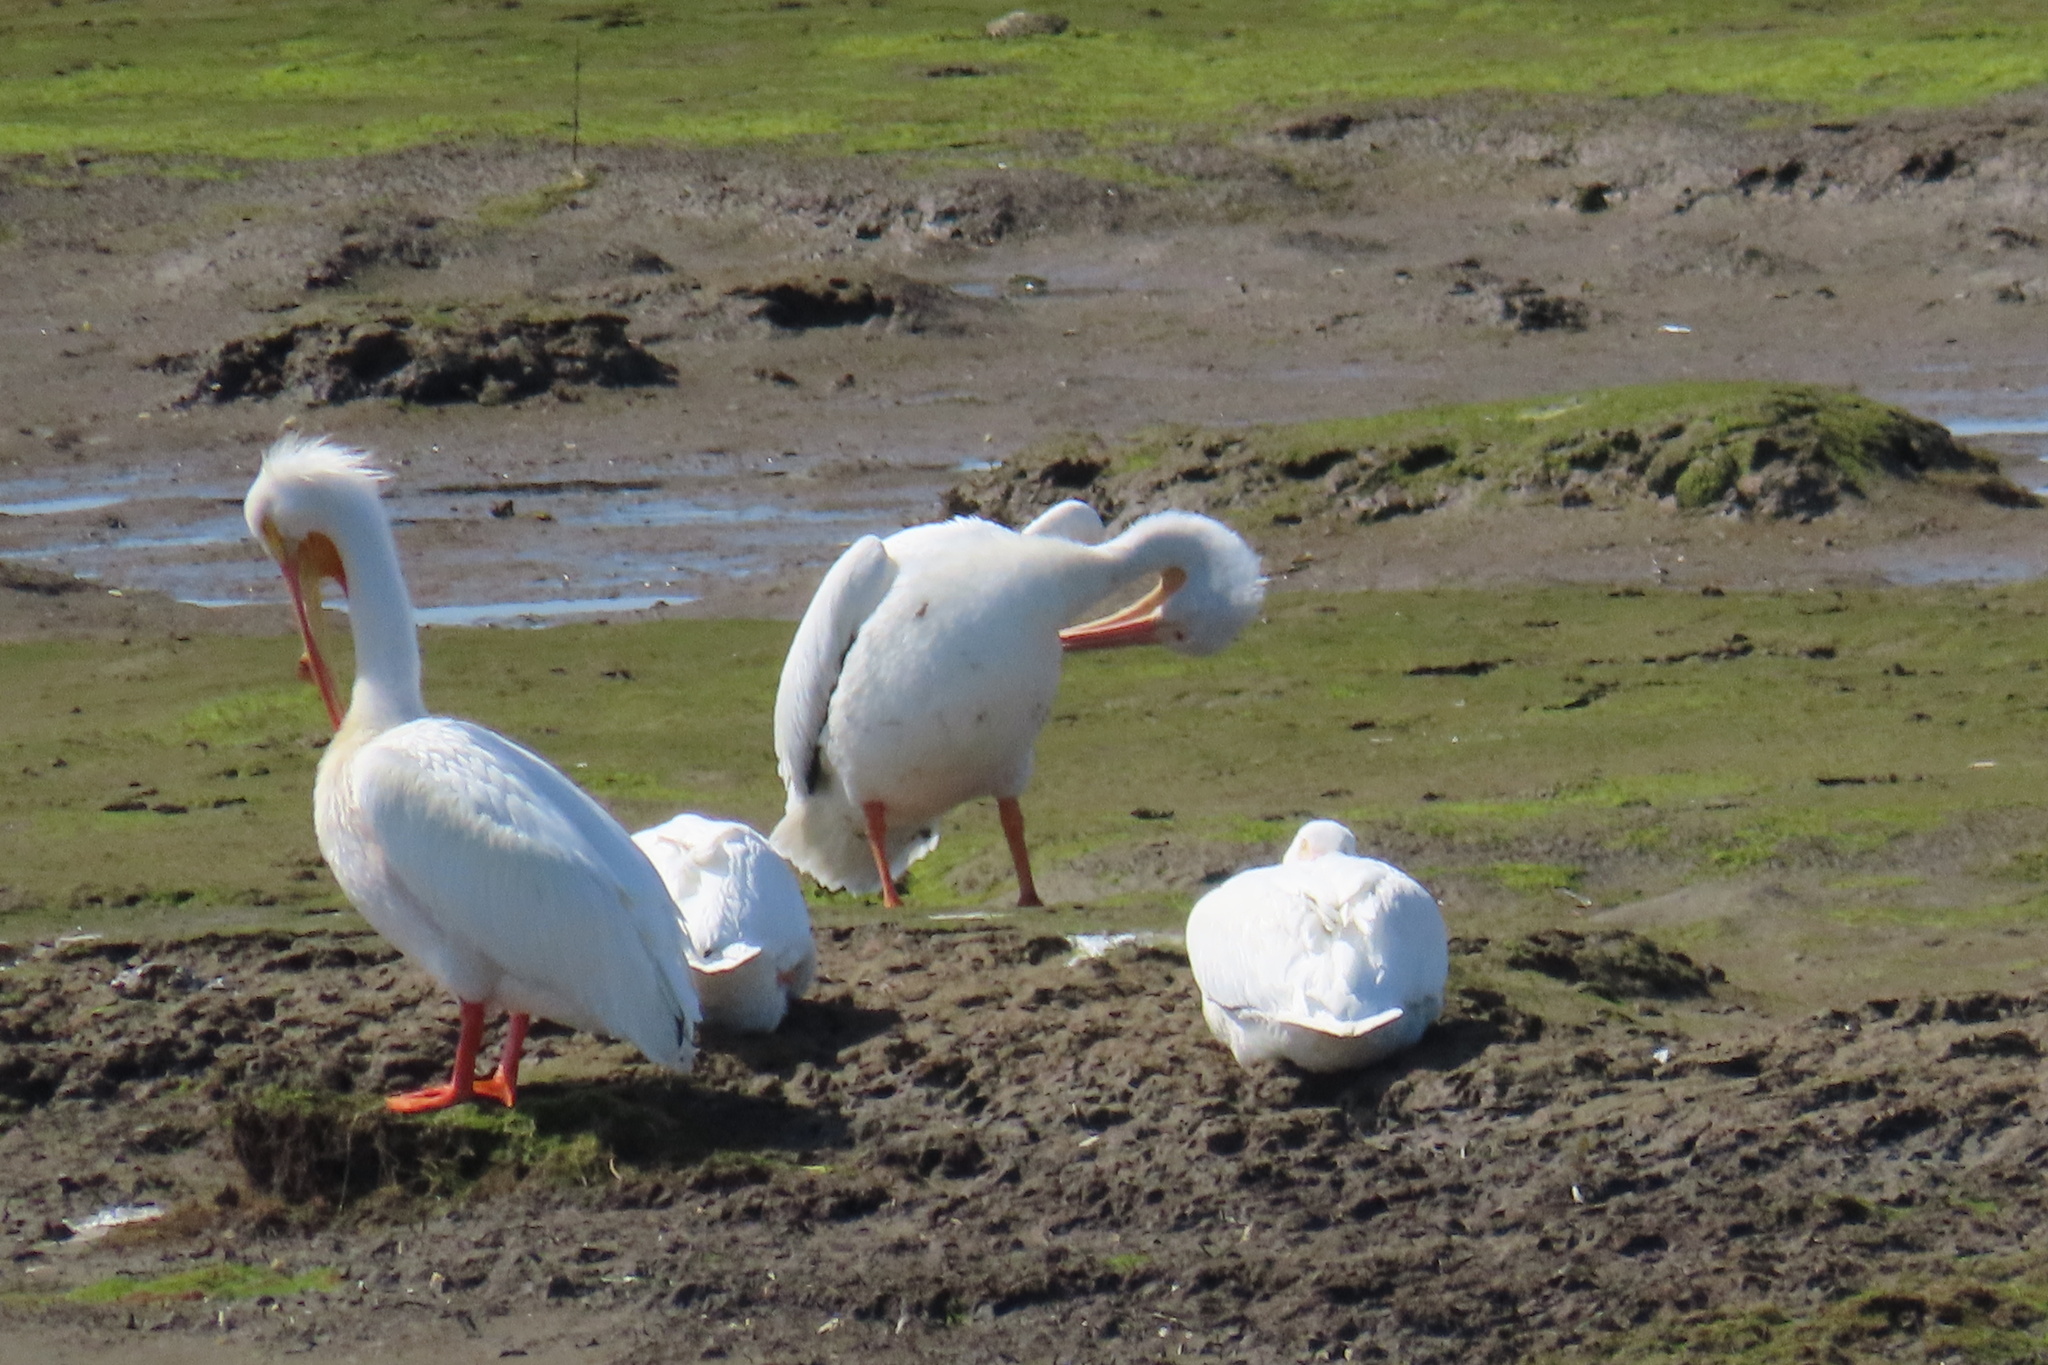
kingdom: Animalia
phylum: Chordata
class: Aves
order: Pelecaniformes
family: Pelecanidae
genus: Pelecanus
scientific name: Pelecanus erythrorhynchos
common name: American white pelican
